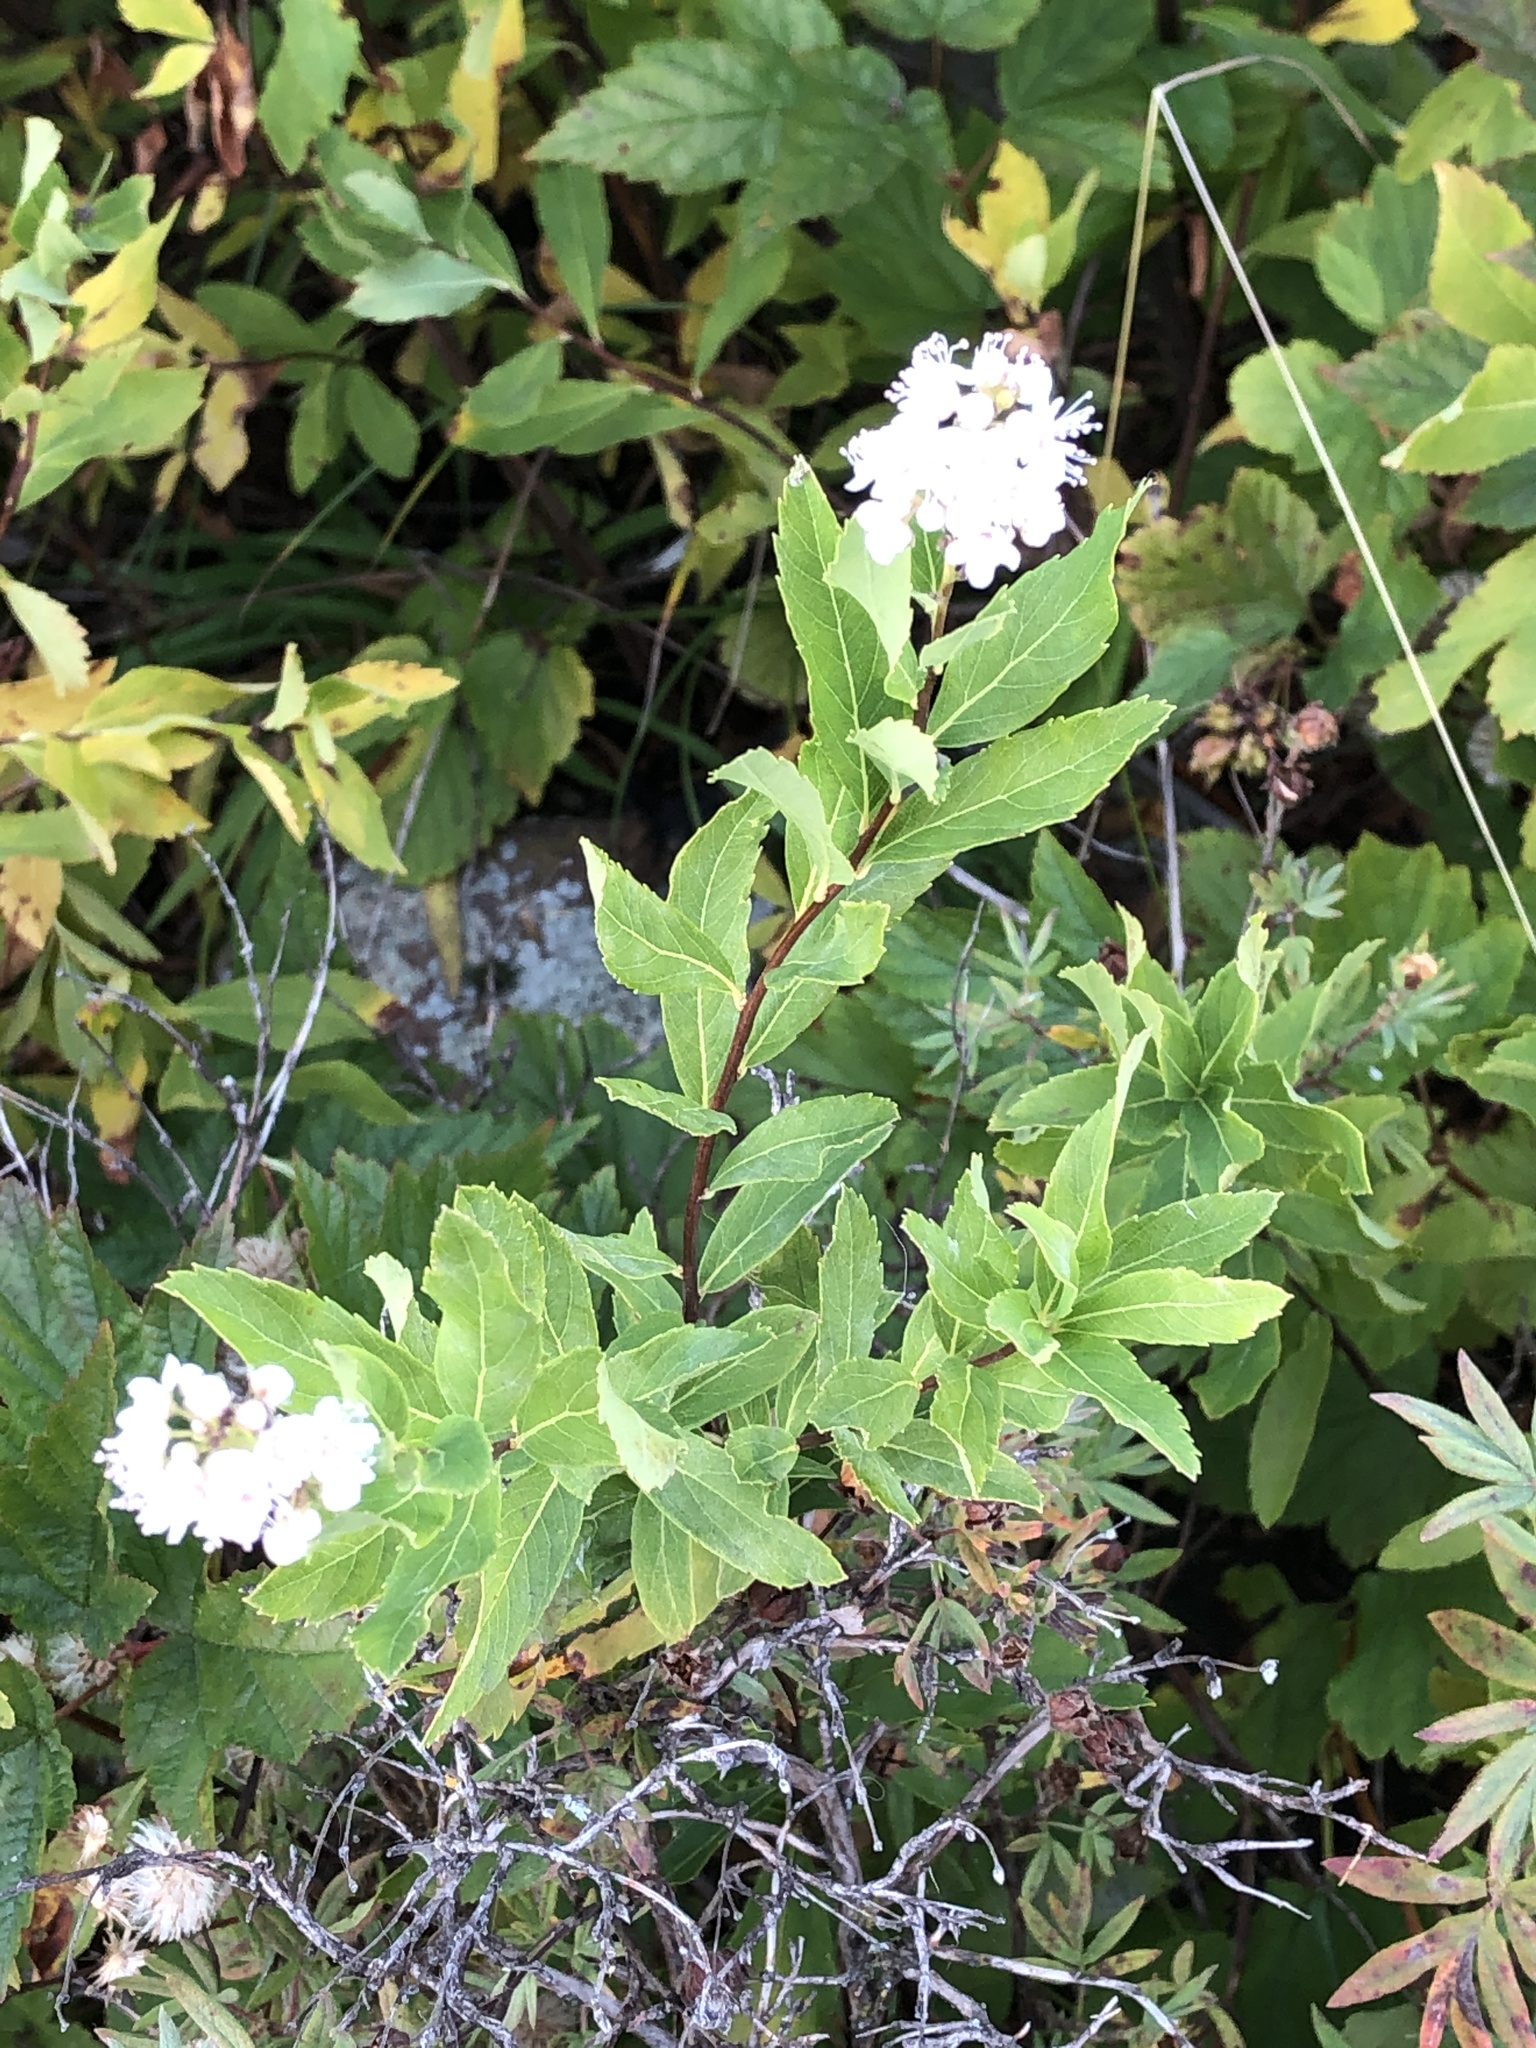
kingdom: Plantae
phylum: Tracheophyta
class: Magnoliopsida
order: Rosales
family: Rosaceae
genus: Spiraea
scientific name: Spiraea alba
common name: Pale bridewort
